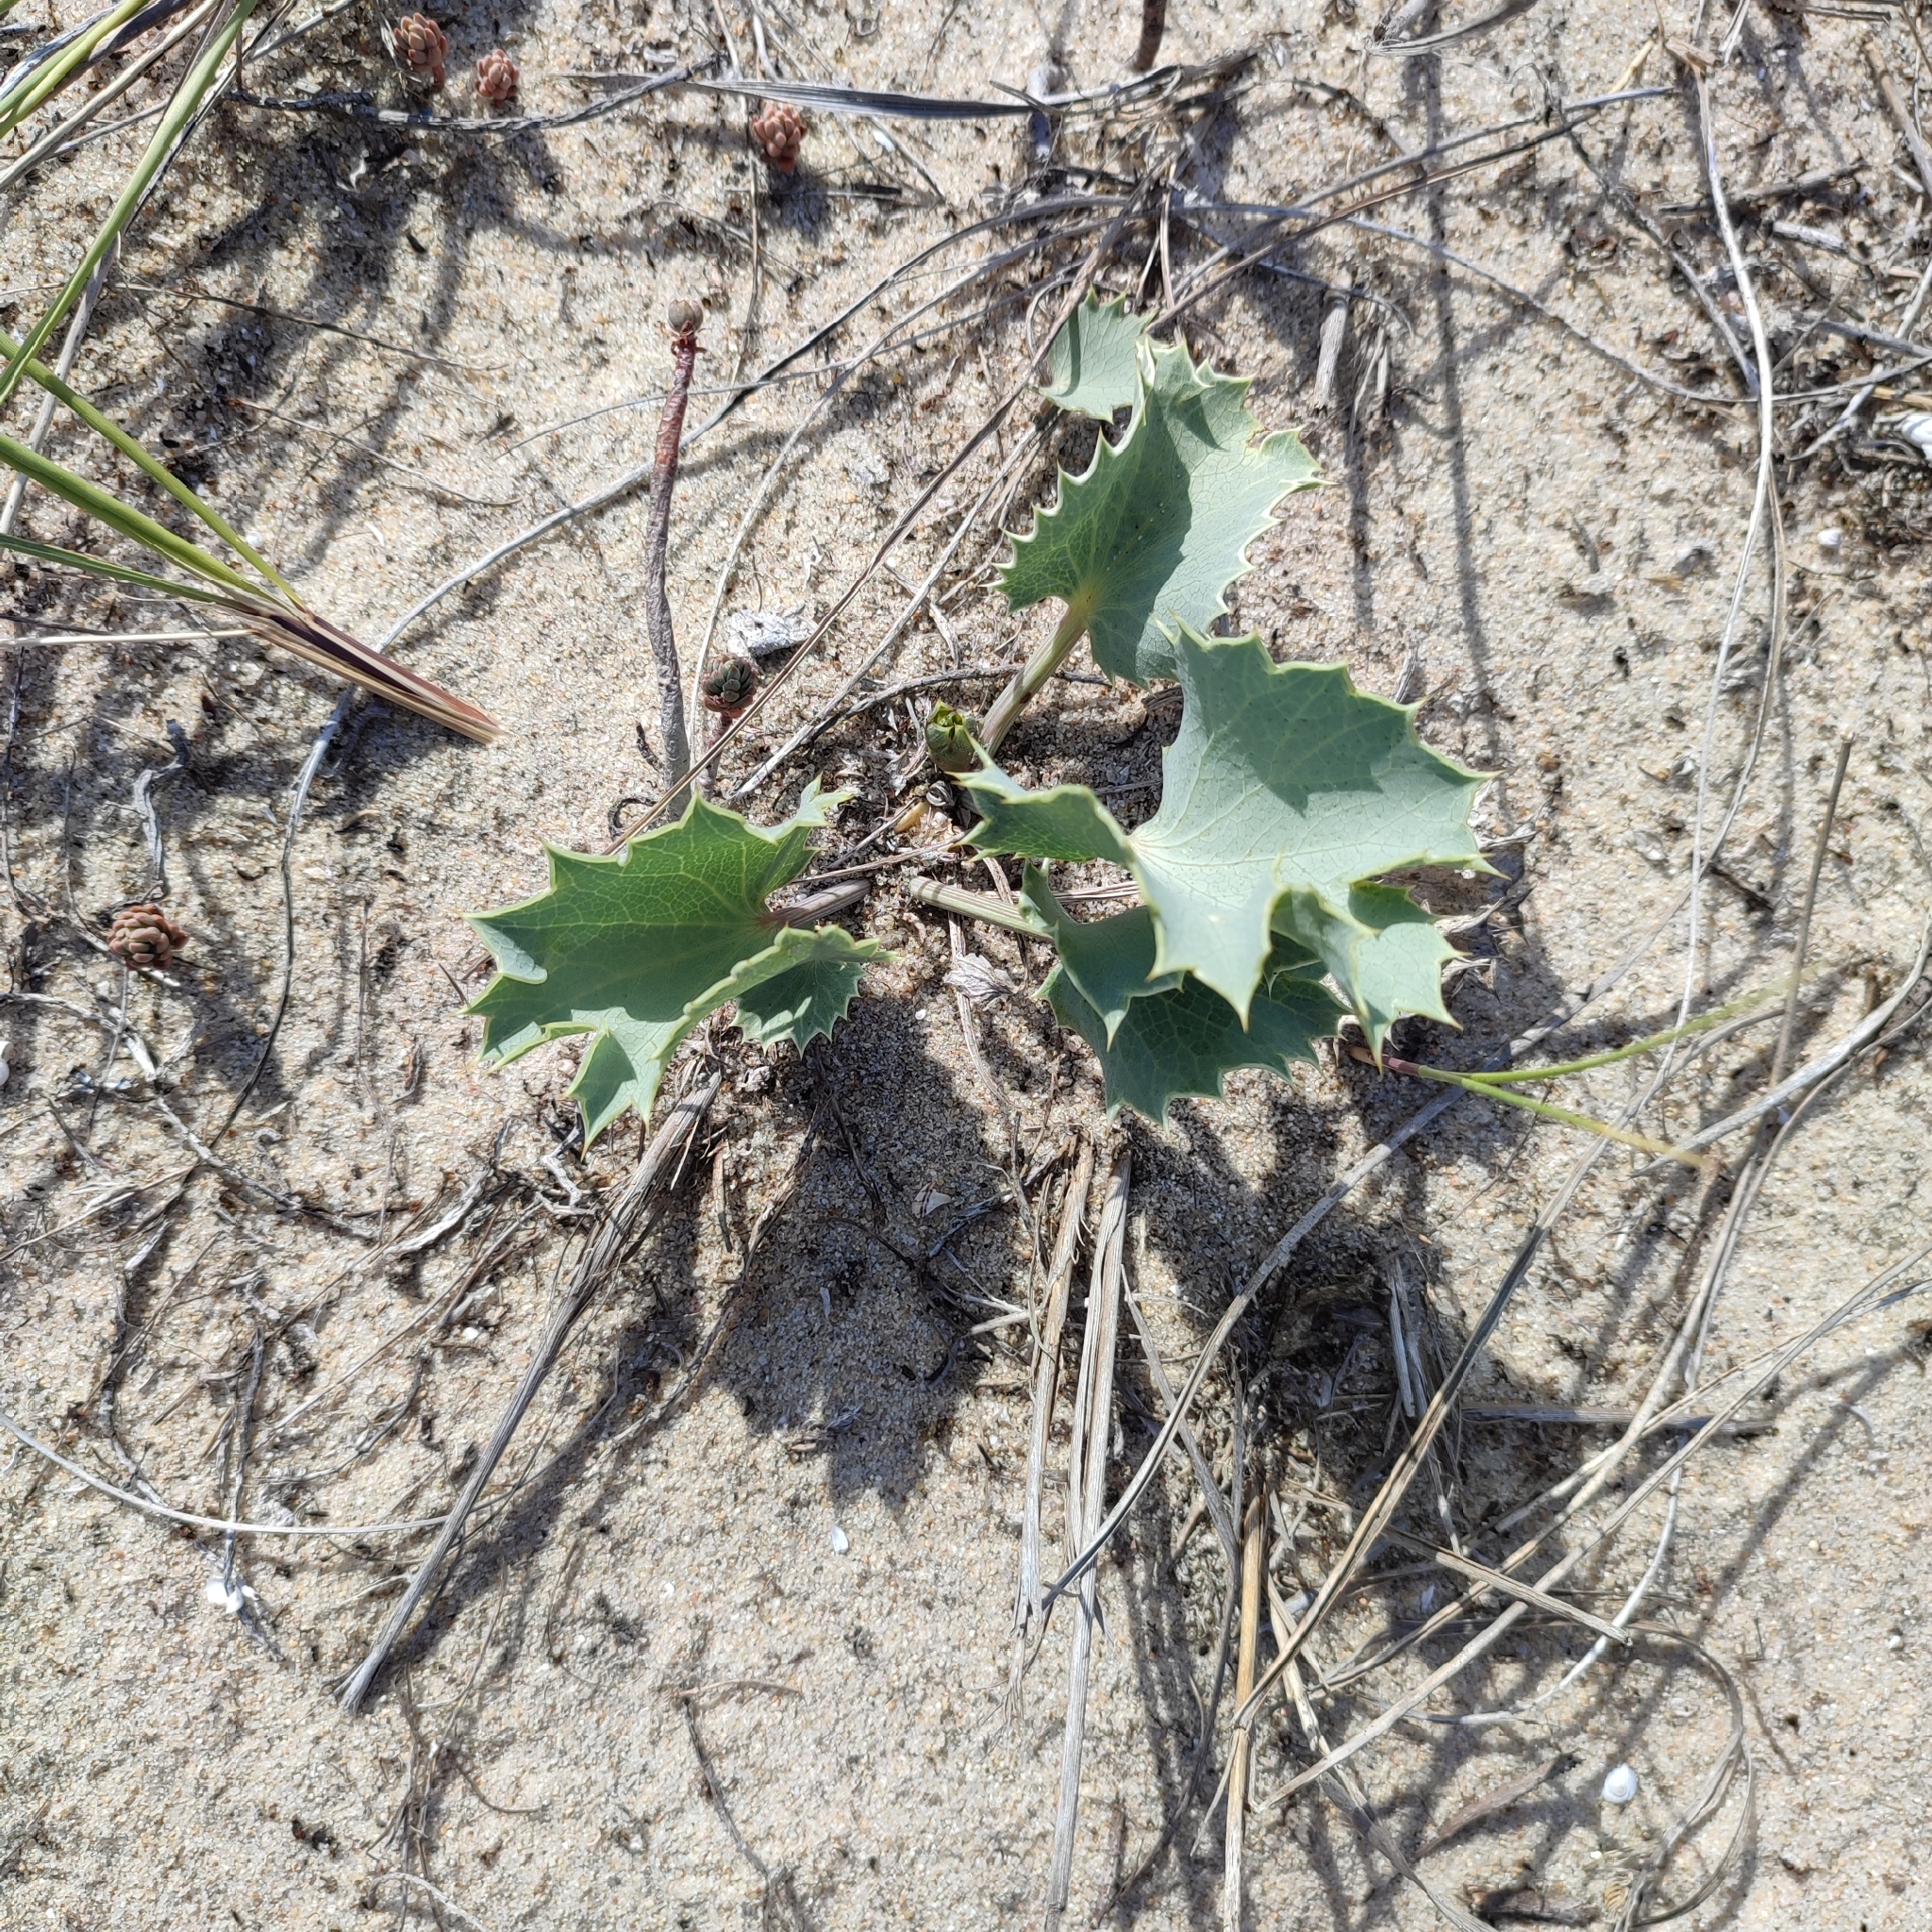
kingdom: Plantae
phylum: Tracheophyta
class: Magnoliopsida
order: Apiales
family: Apiaceae
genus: Eryngium
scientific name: Eryngium maritimum
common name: Sea-holly
